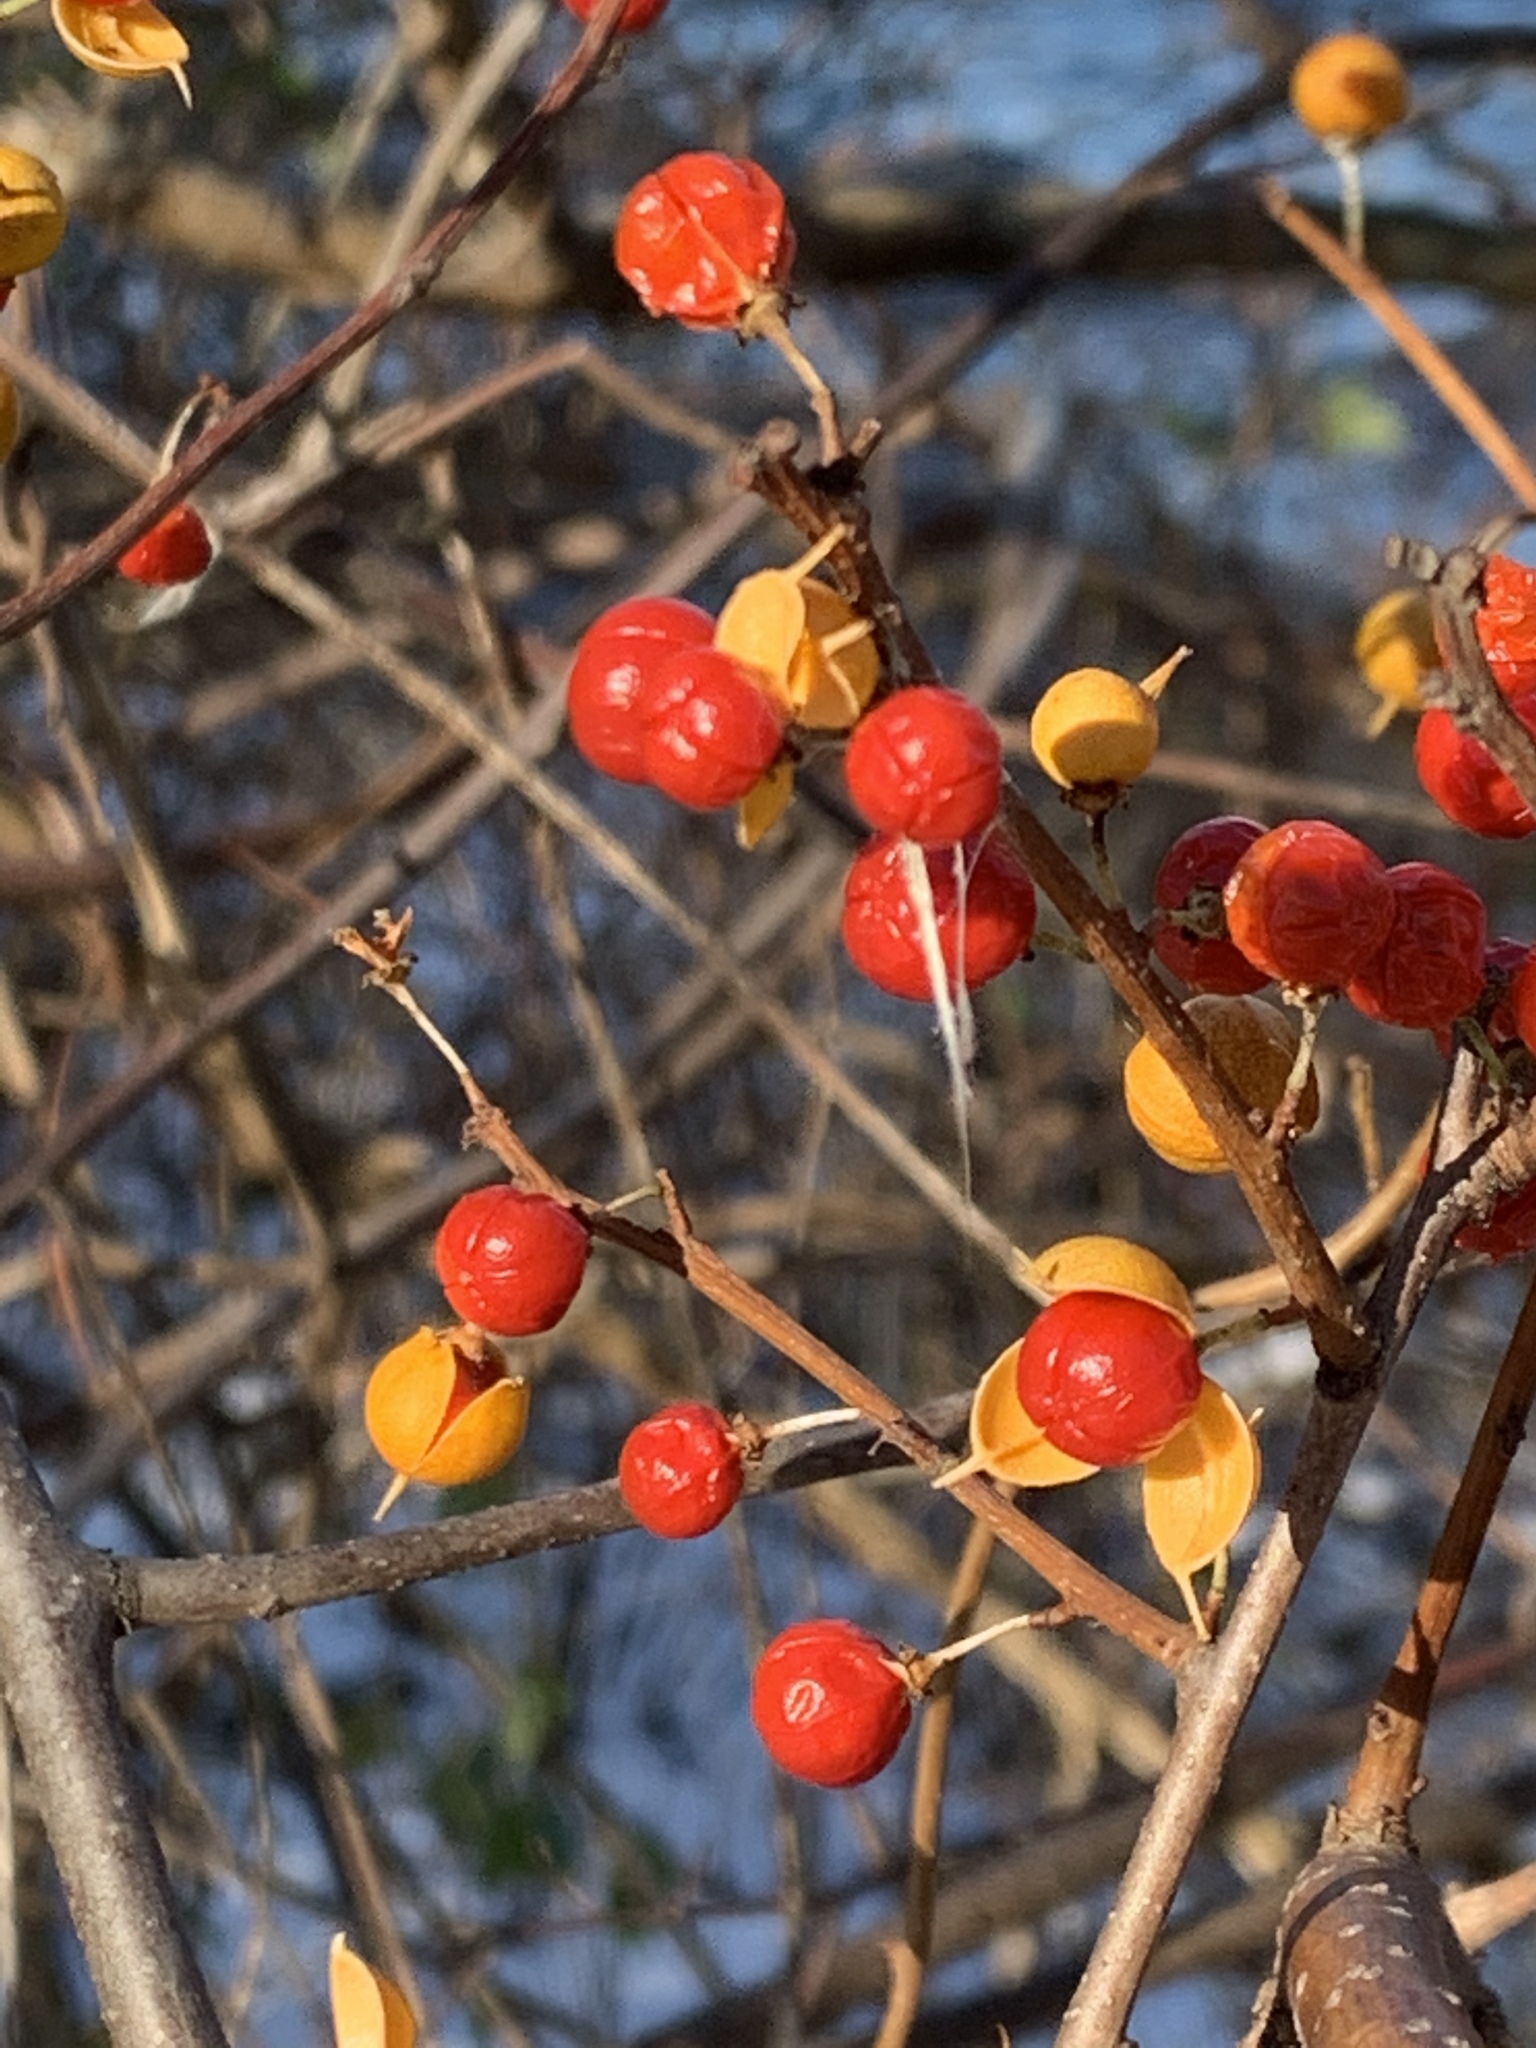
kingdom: Plantae
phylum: Tracheophyta
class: Magnoliopsida
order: Celastrales
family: Celastraceae
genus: Celastrus
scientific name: Celastrus orbiculatus
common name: Oriental bittersweet
